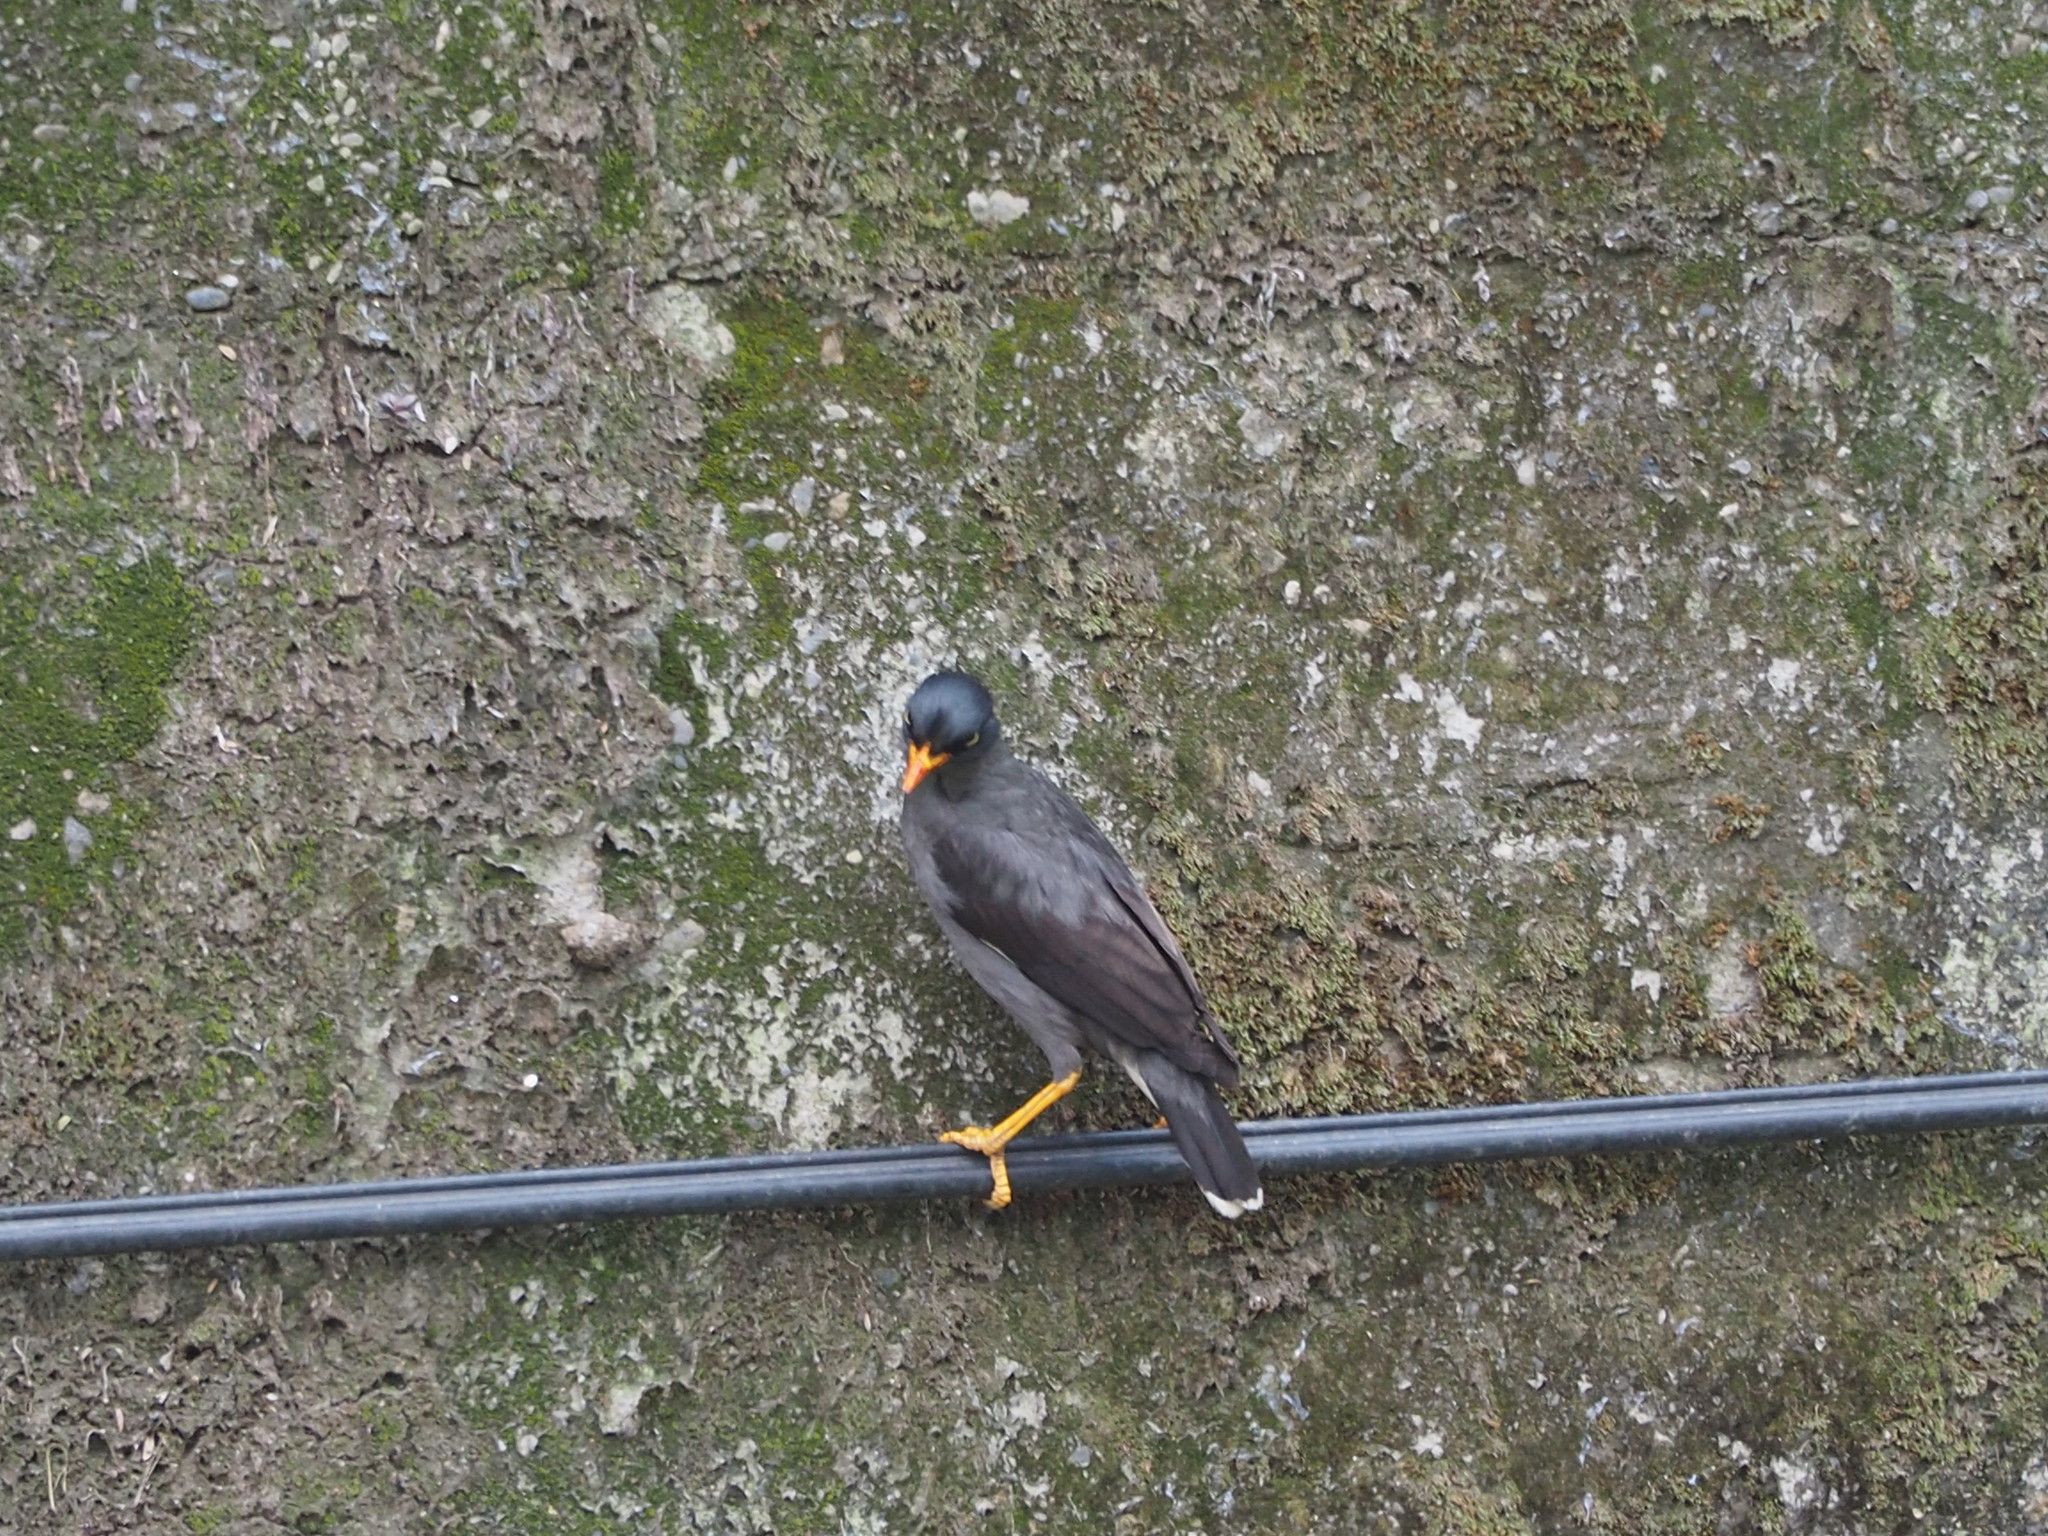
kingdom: Animalia
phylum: Chordata
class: Aves
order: Passeriformes
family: Sturnidae
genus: Acridotheres
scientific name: Acridotheres javanicus
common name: Javan myna
